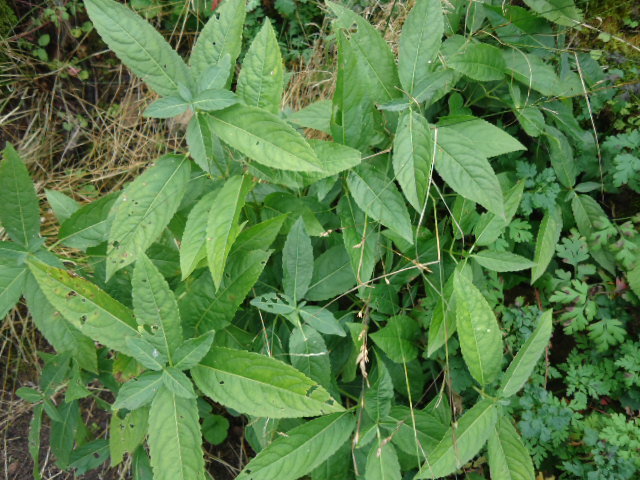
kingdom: Plantae
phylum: Tracheophyta
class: Magnoliopsida
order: Malpighiales
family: Euphorbiaceae
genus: Mercurialis
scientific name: Mercurialis perennis
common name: Dog mercury
